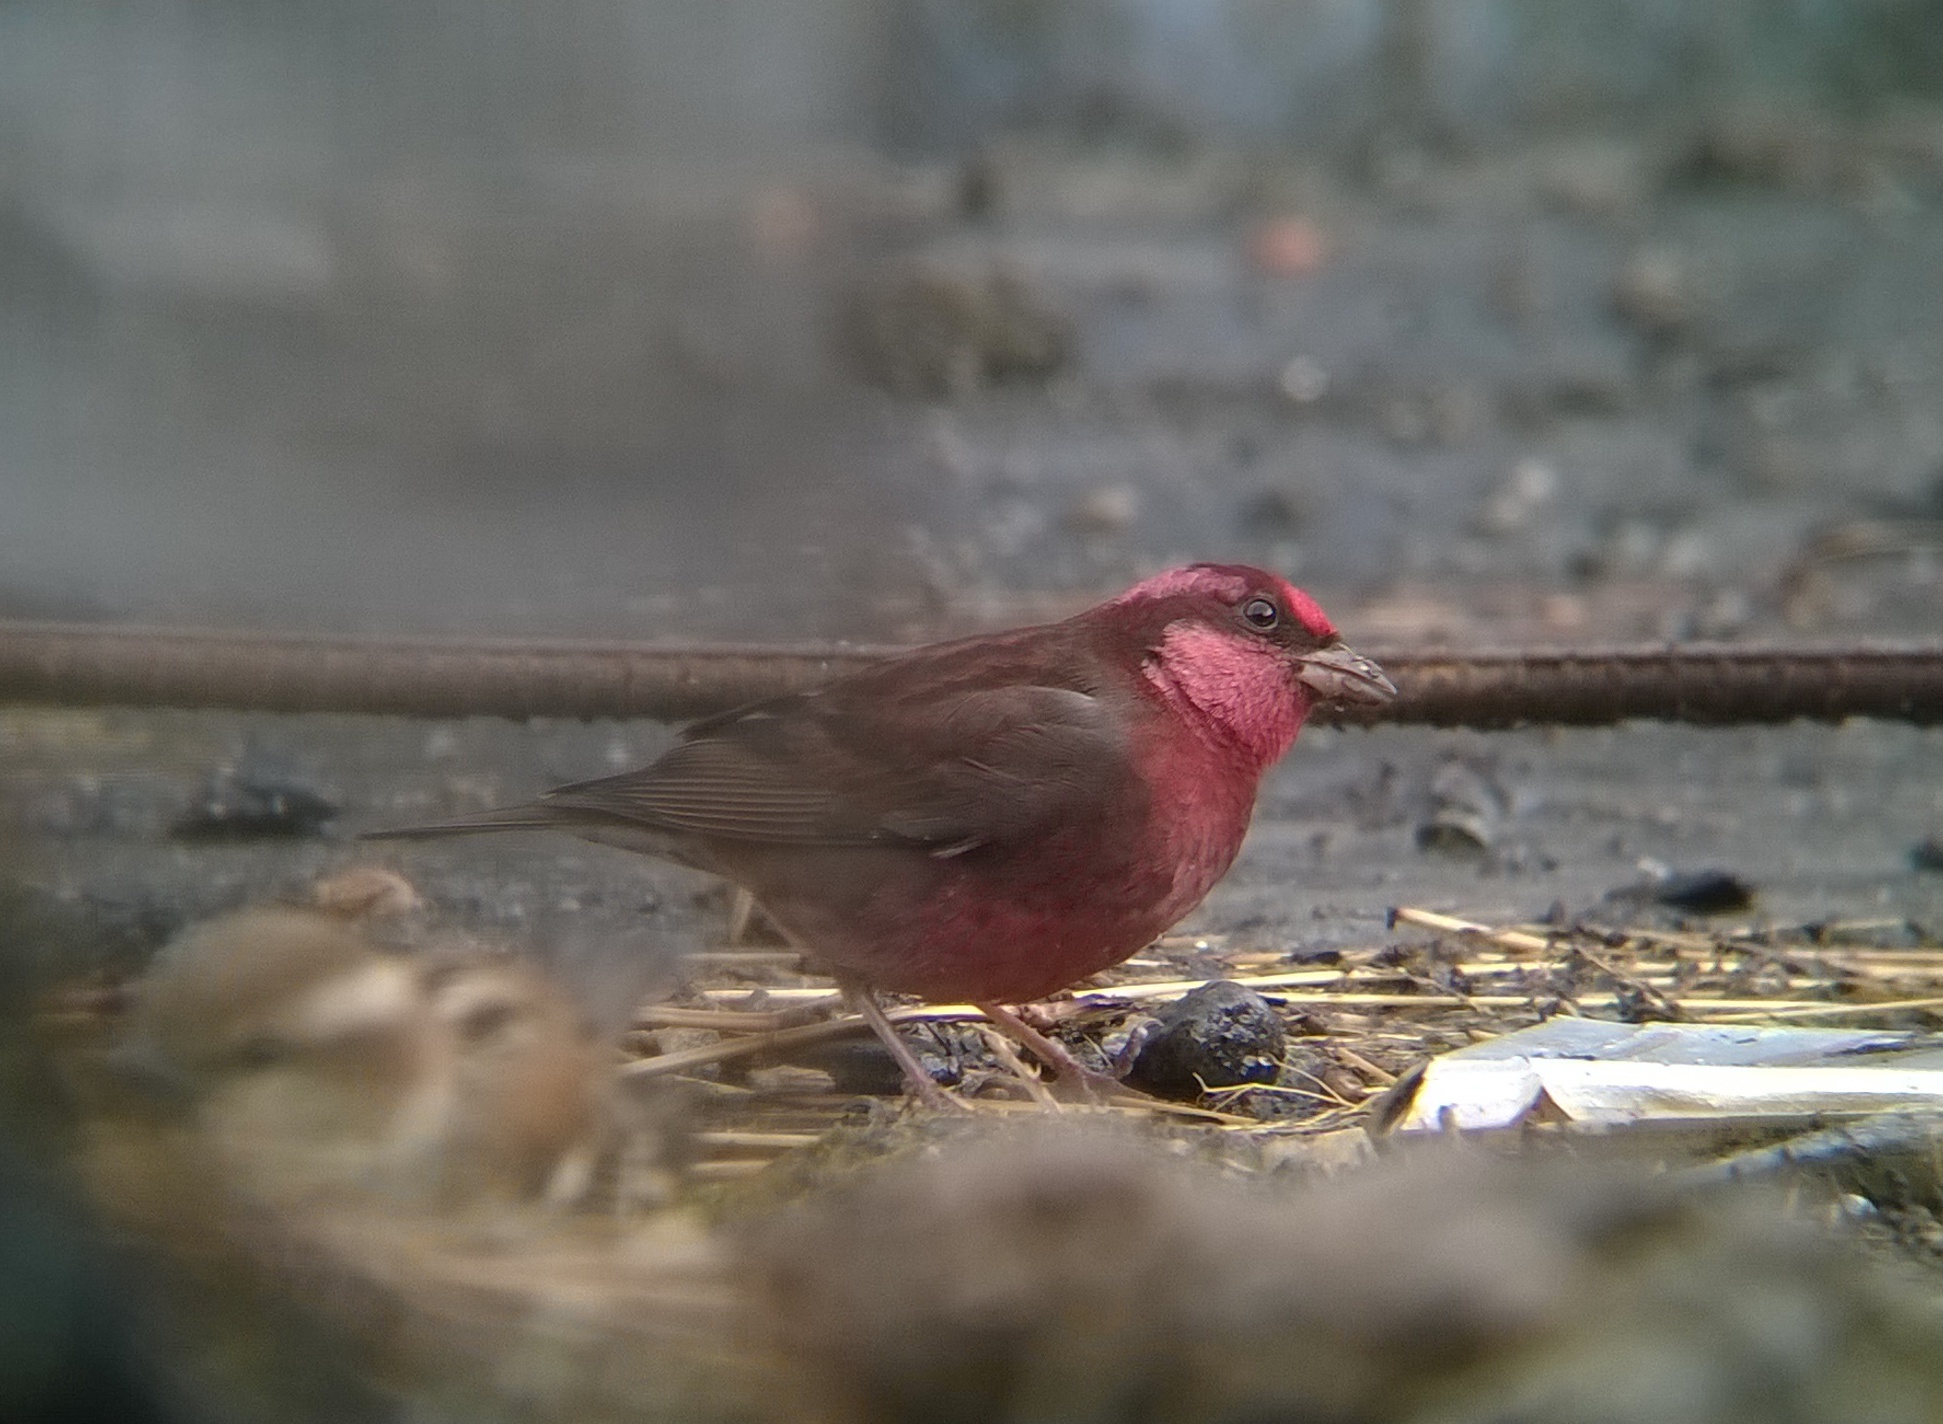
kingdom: Animalia
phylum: Chordata
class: Aves
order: Passeriformes
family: Fringillidae
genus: Procarduelis
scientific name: Procarduelis nipalensis
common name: Dark-breasted rosefinch
